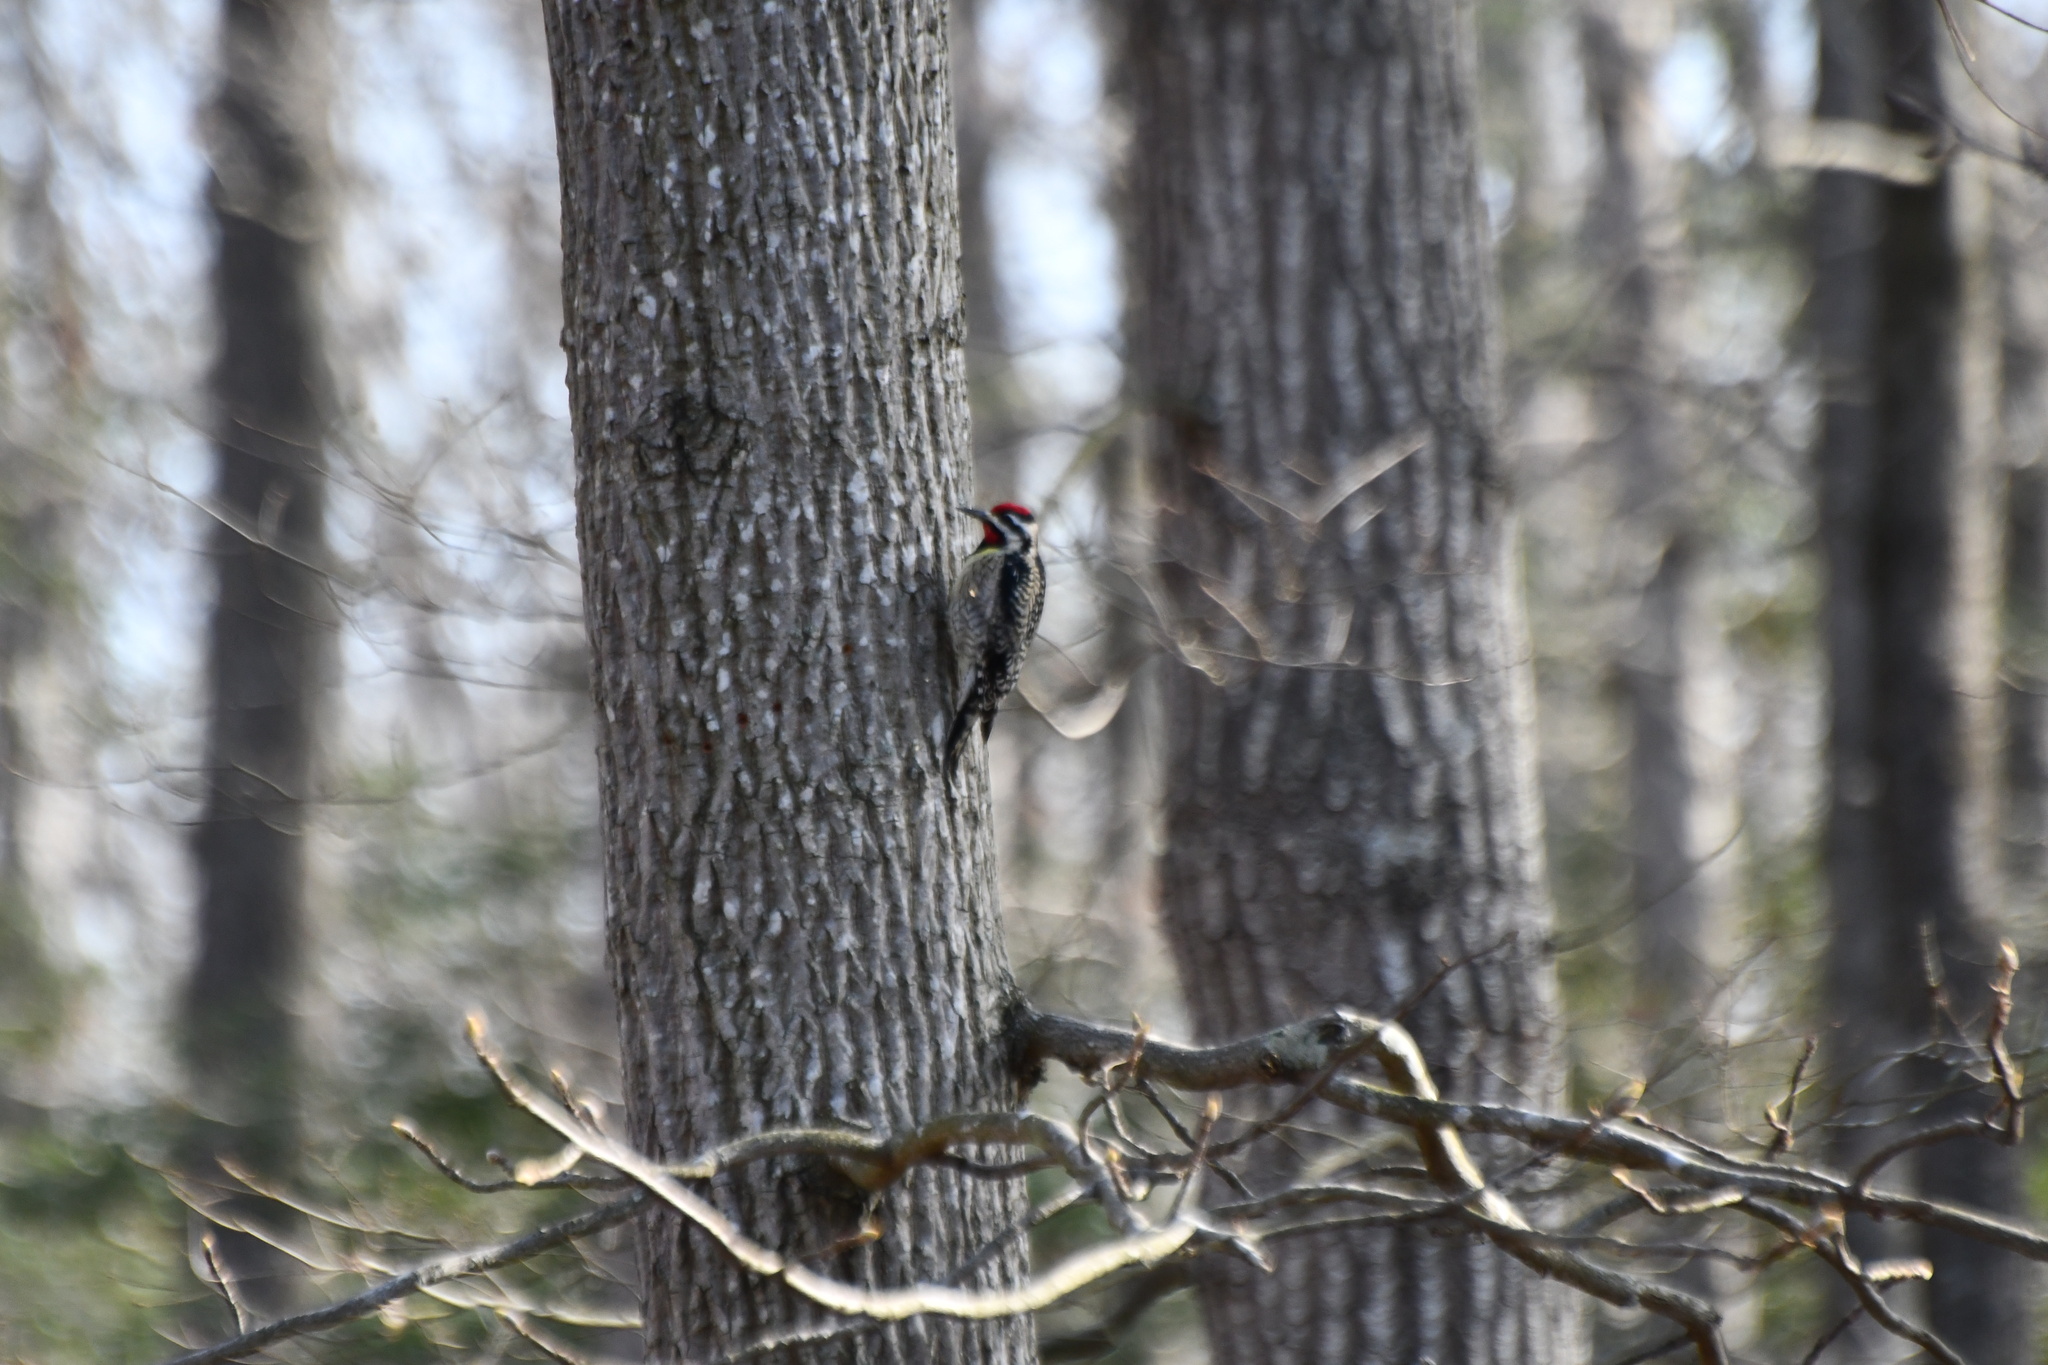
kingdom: Animalia
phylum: Chordata
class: Aves
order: Piciformes
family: Picidae
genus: Sphyrapicus
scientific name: Sphyrapicus varius
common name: Yellow-bellied sapsucker
